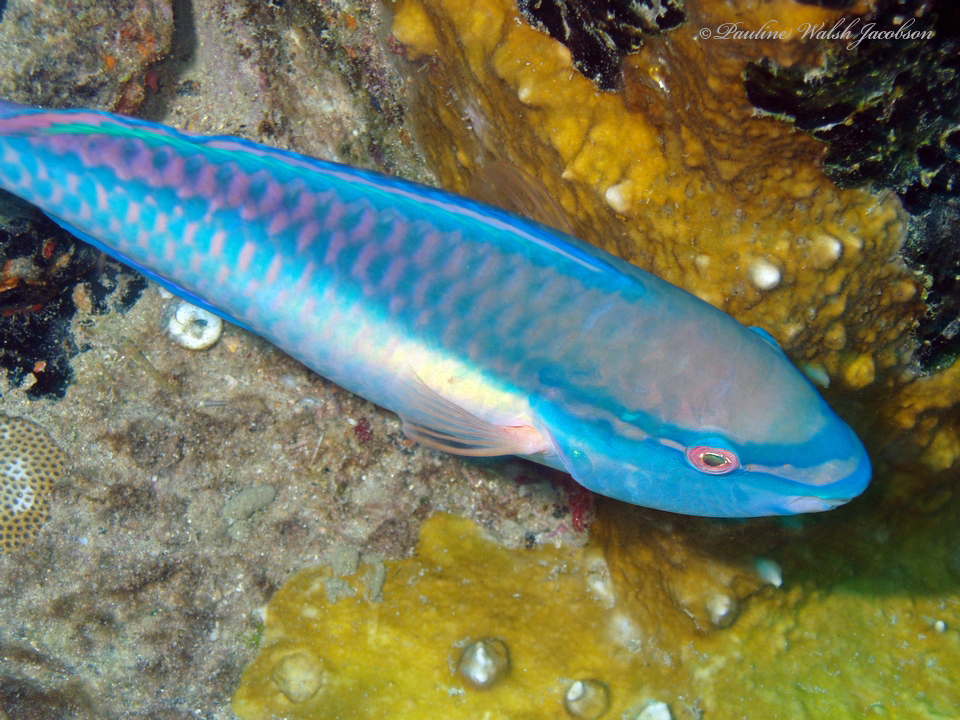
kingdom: Animalia
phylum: Chordata
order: Perciformes
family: Scaridae
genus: Scarus
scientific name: Scarus taeniopterus
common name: Princess parrotfish
